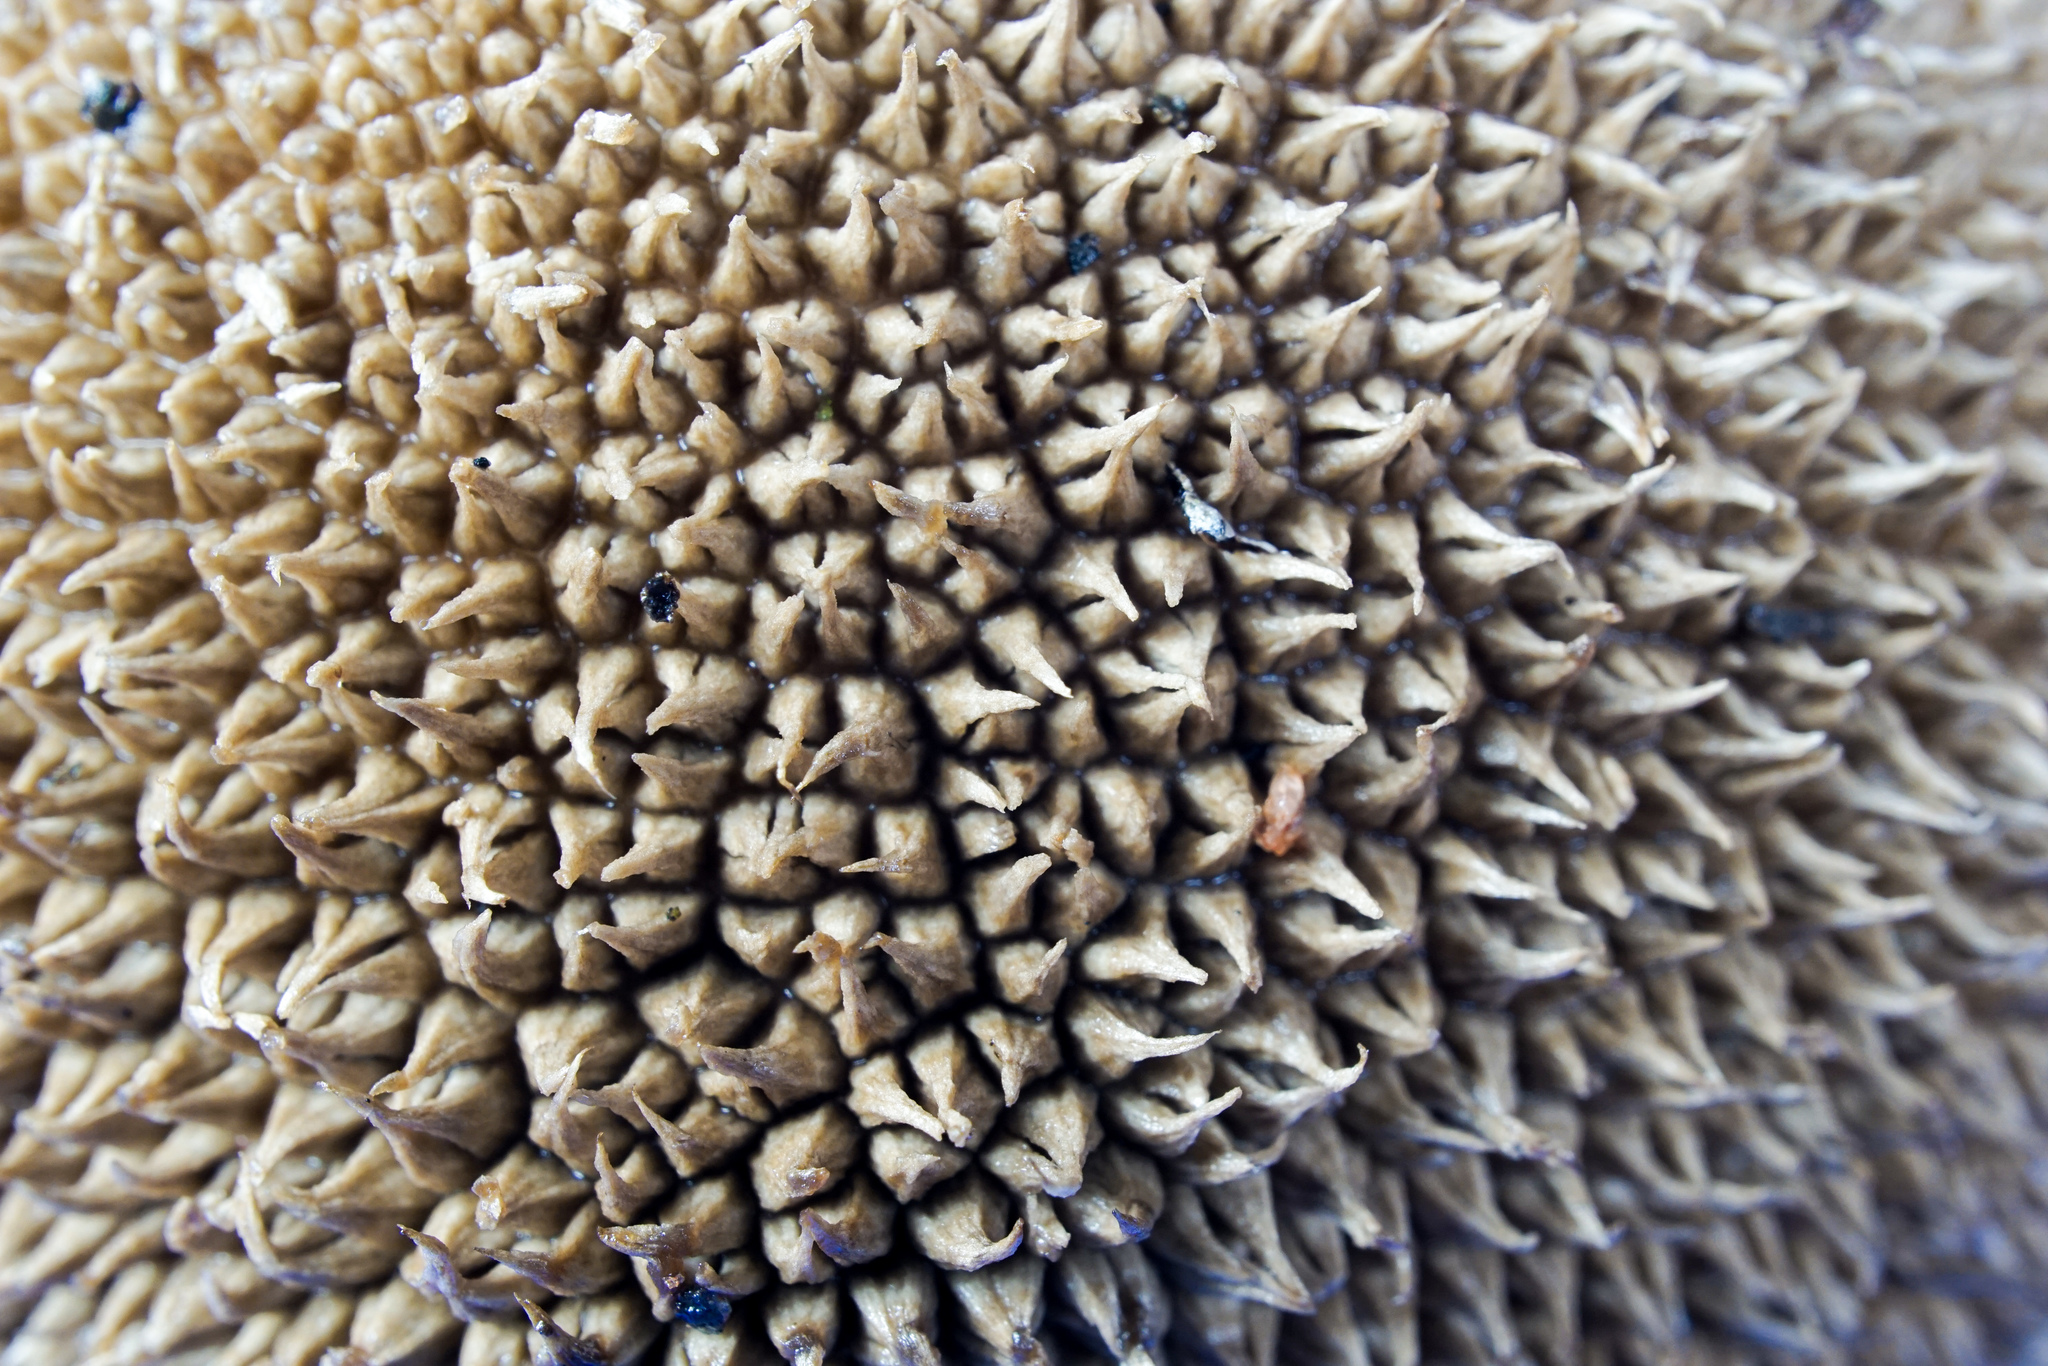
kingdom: Fungi
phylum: Basidiomycota
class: Agaricomycetes
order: Agaricales
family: Lycoperdaceae
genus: Lycoperdon
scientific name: Lycoperdon americanum
